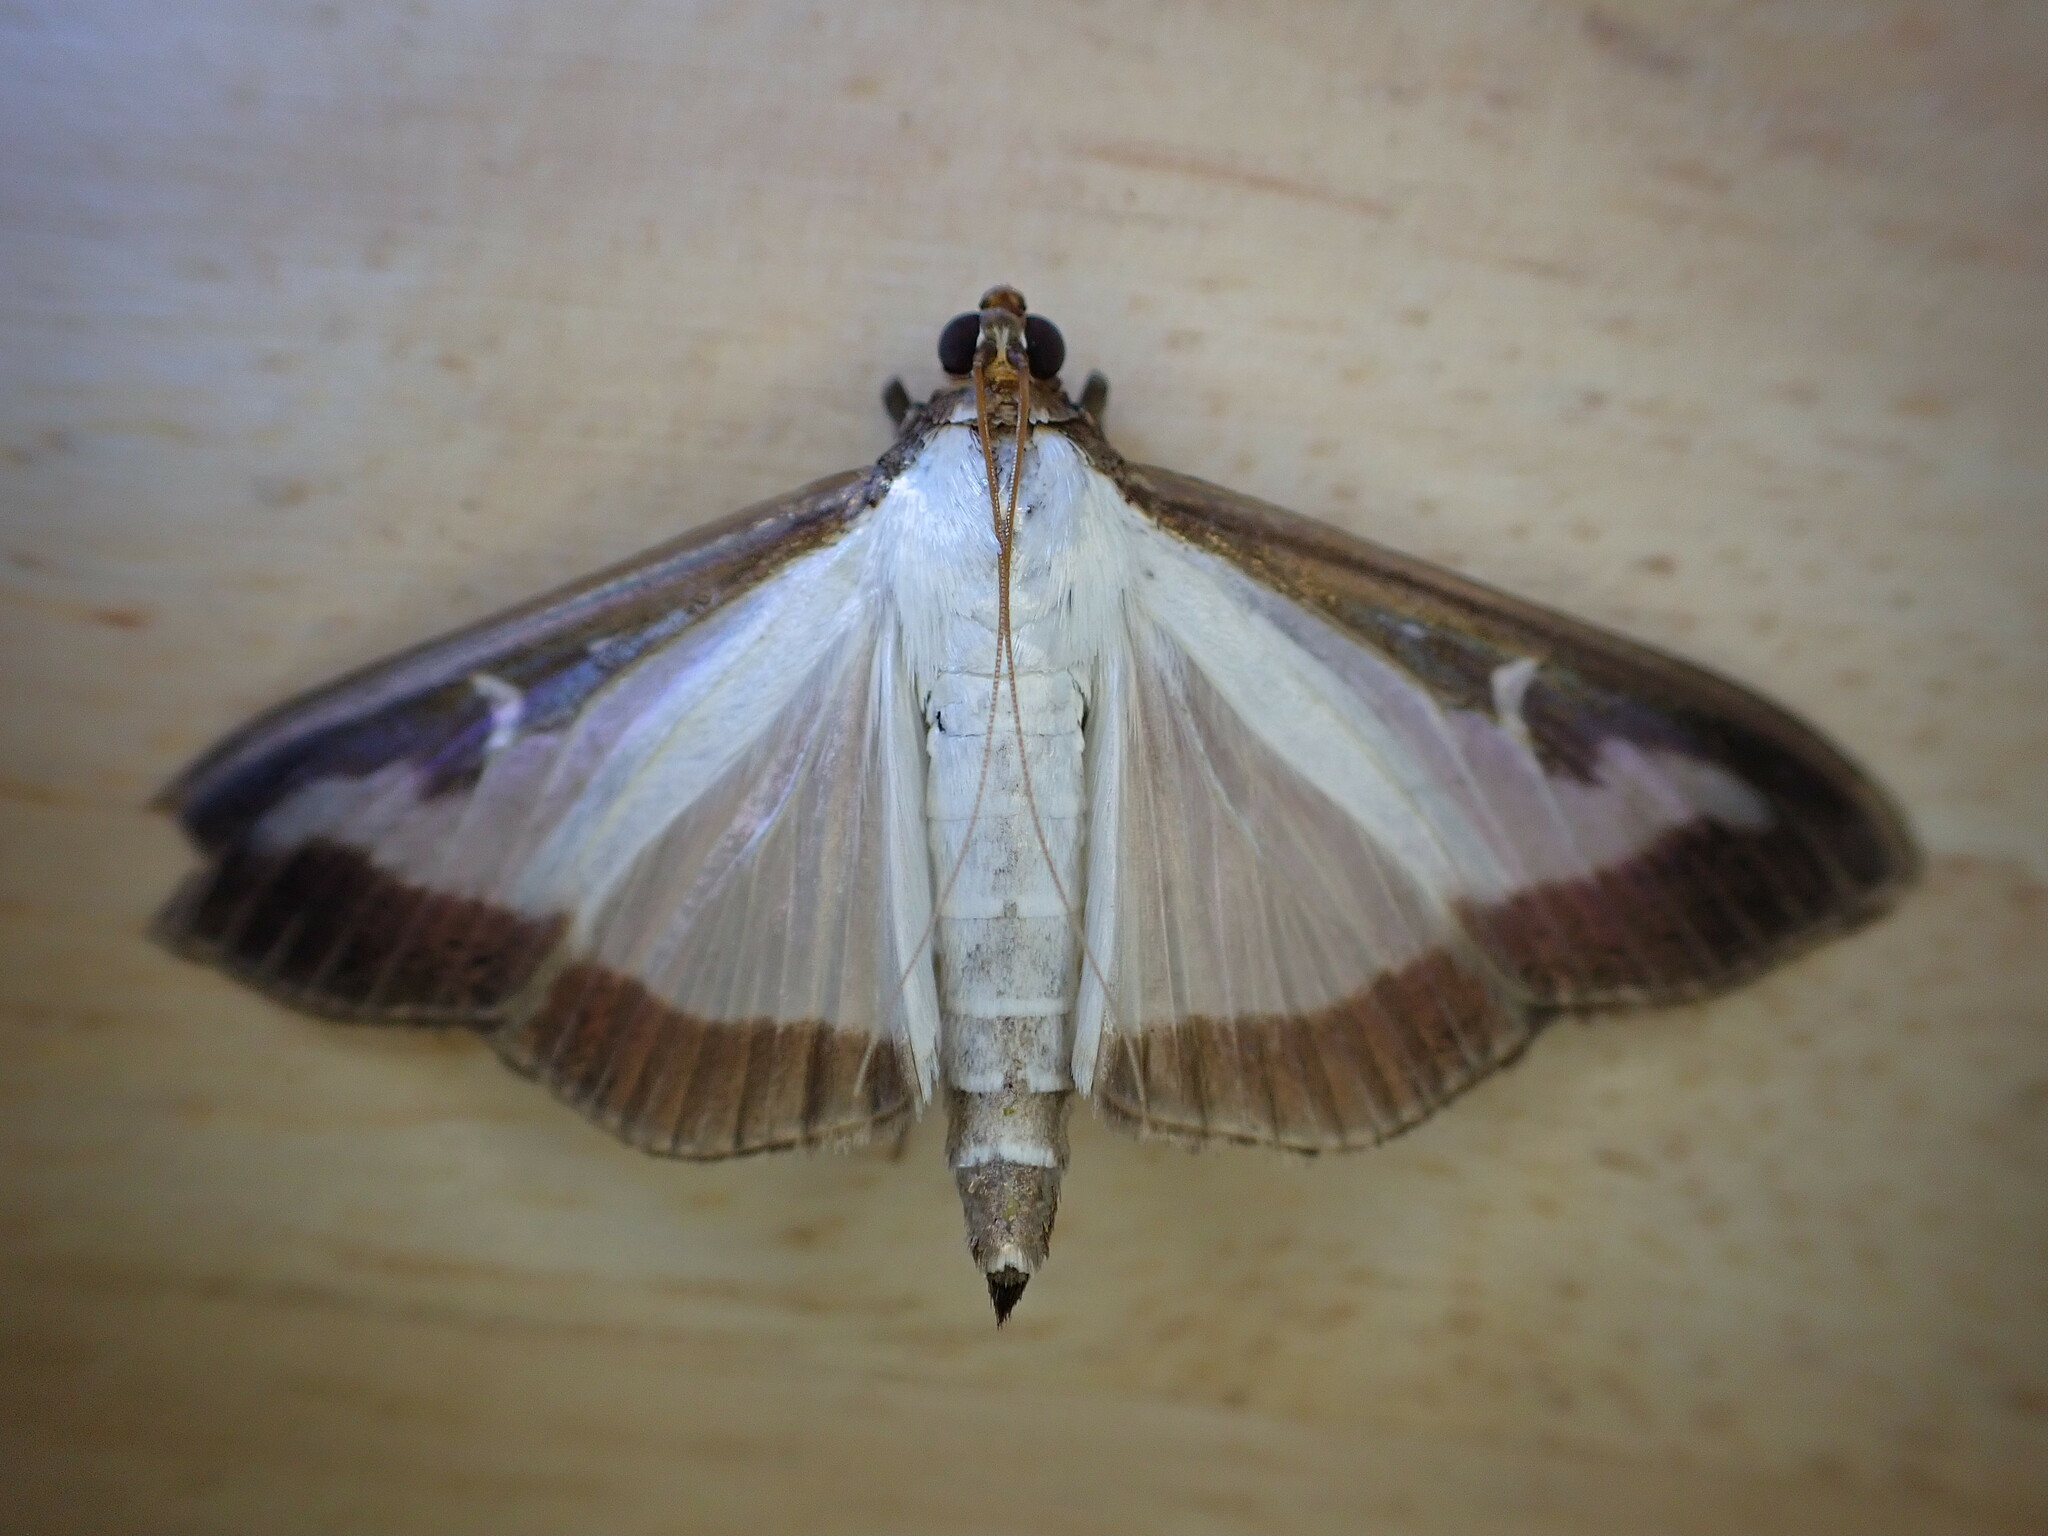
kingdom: Animalia
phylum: Arthropoda
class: Insecta
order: Lepidoptera
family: Crambidae
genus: Cydalima
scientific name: Cydalima perspectalis
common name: Box tree moth
